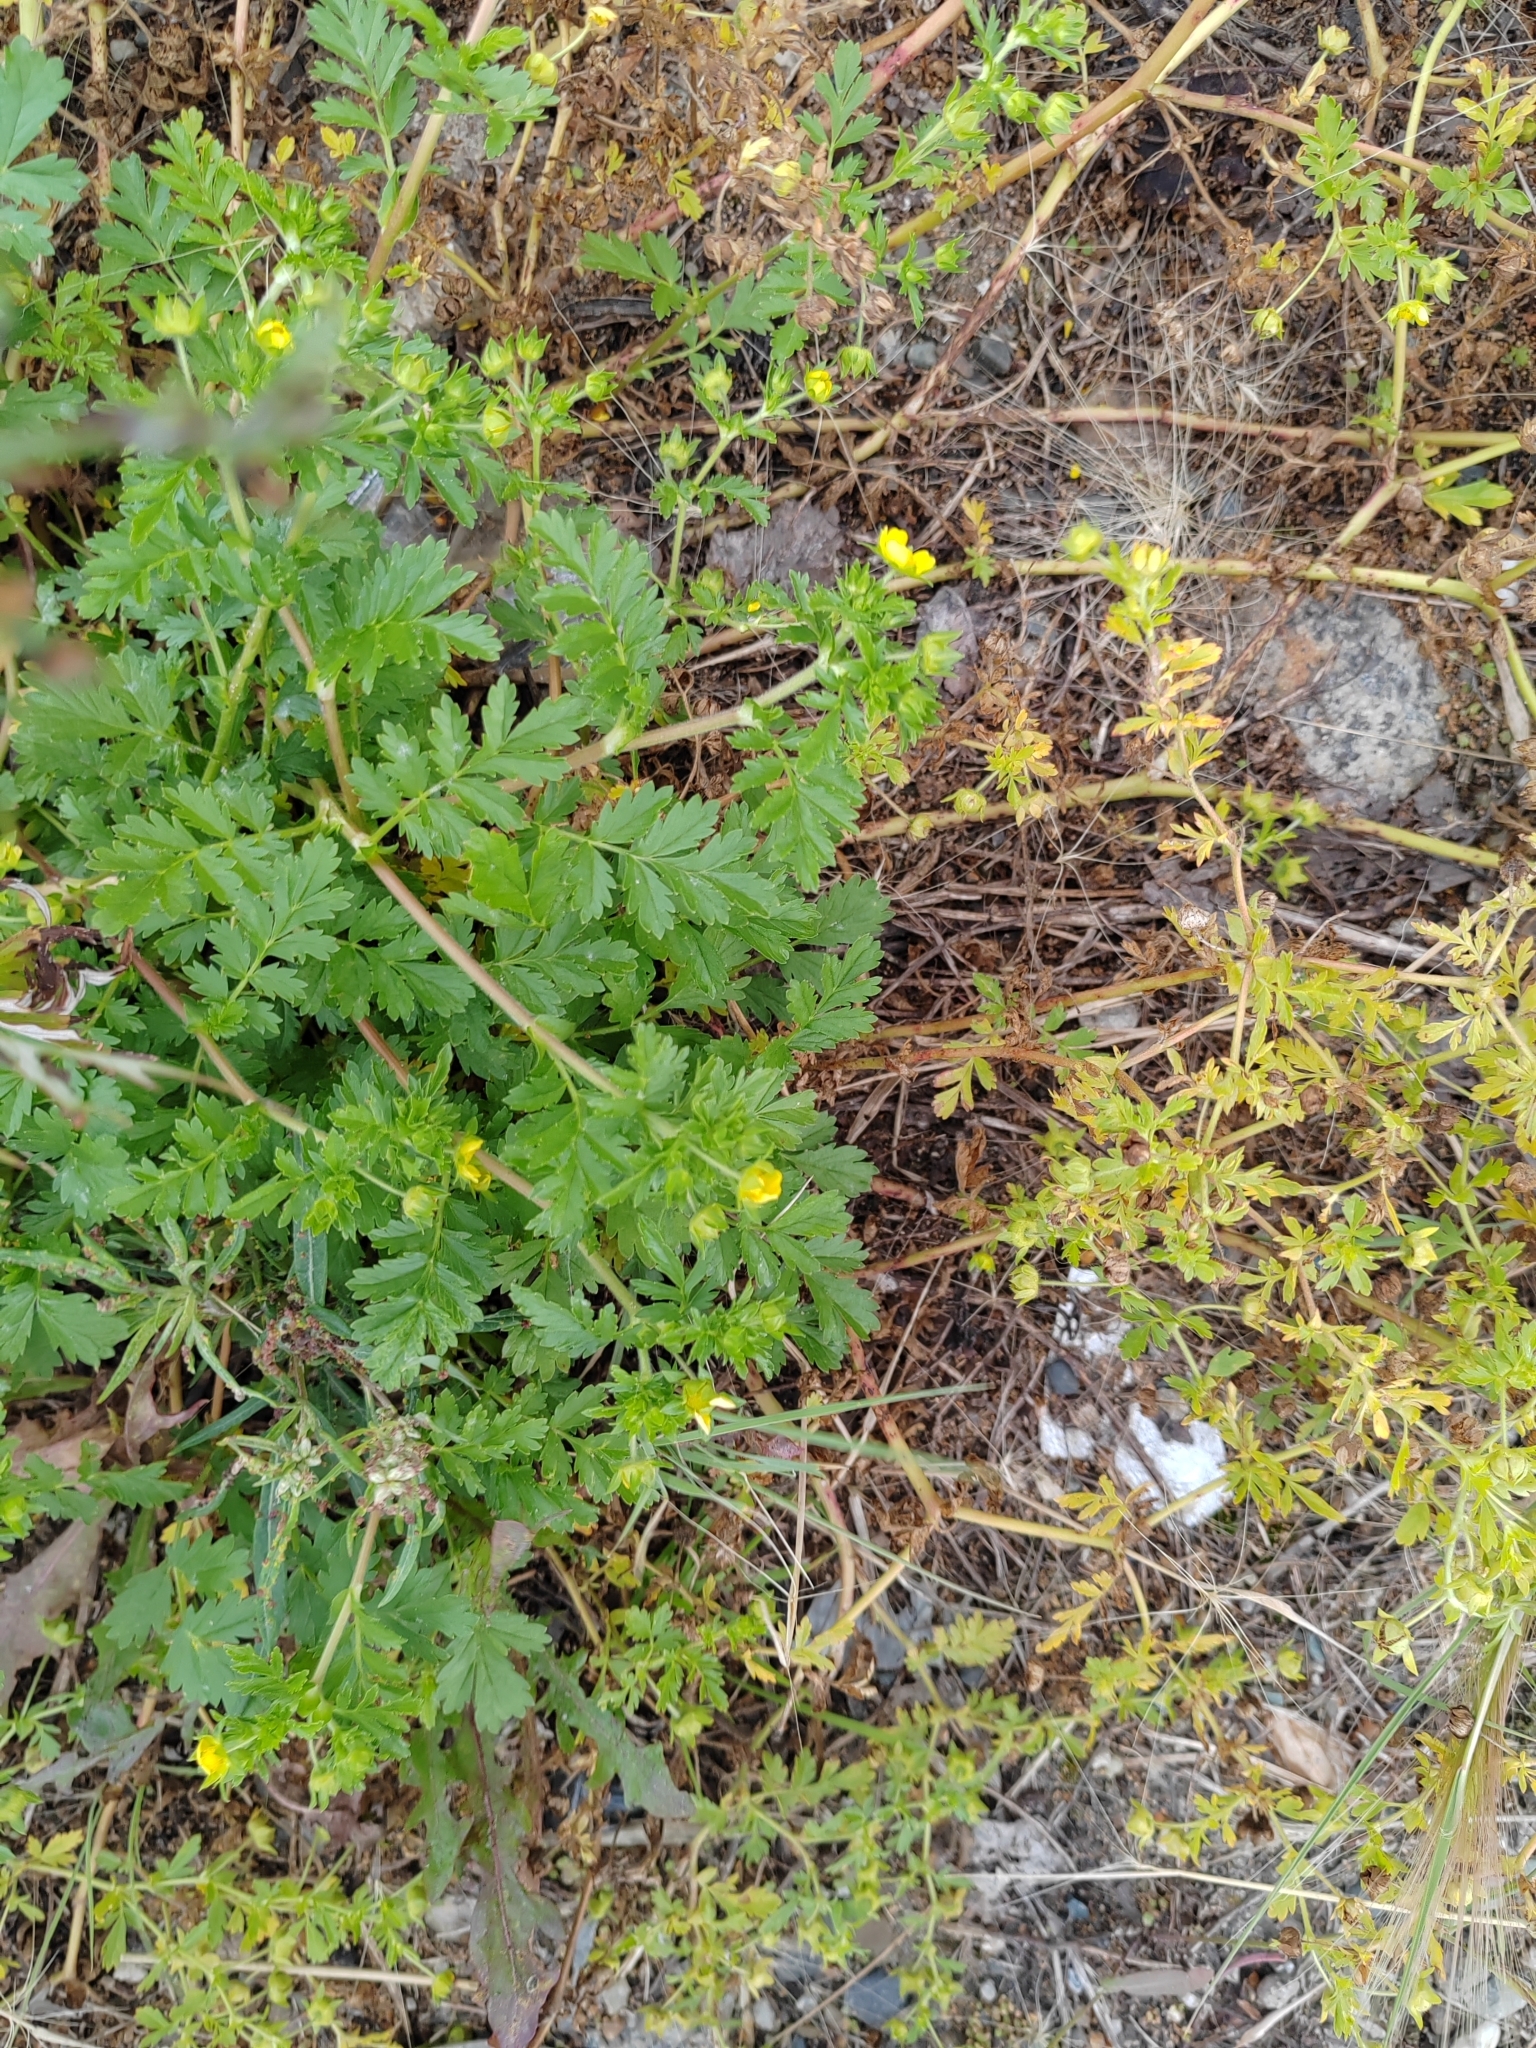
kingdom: Plantae
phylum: Tracheophyta
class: Magnoliopsida
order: Rosales
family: Rosaceae
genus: Potentilla
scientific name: Potentilla supina
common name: Prostrate cinquefoil
